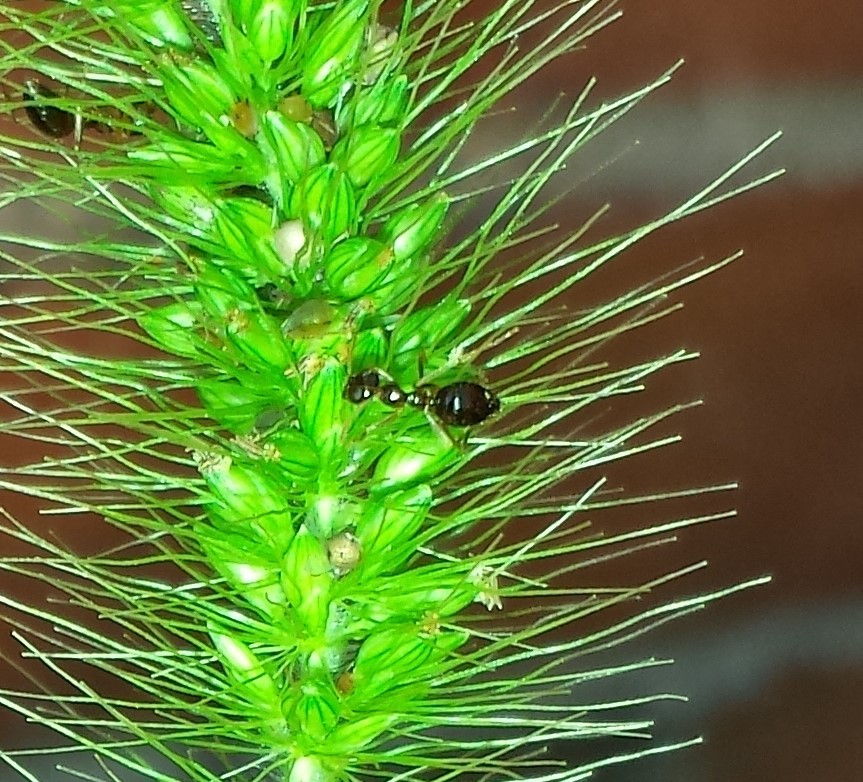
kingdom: Animalia
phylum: Arthropoda
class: Insecta
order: Hymenoptera
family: Formicidae
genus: Prenolepis
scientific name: Prenolepis imparis
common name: Small honey ant
